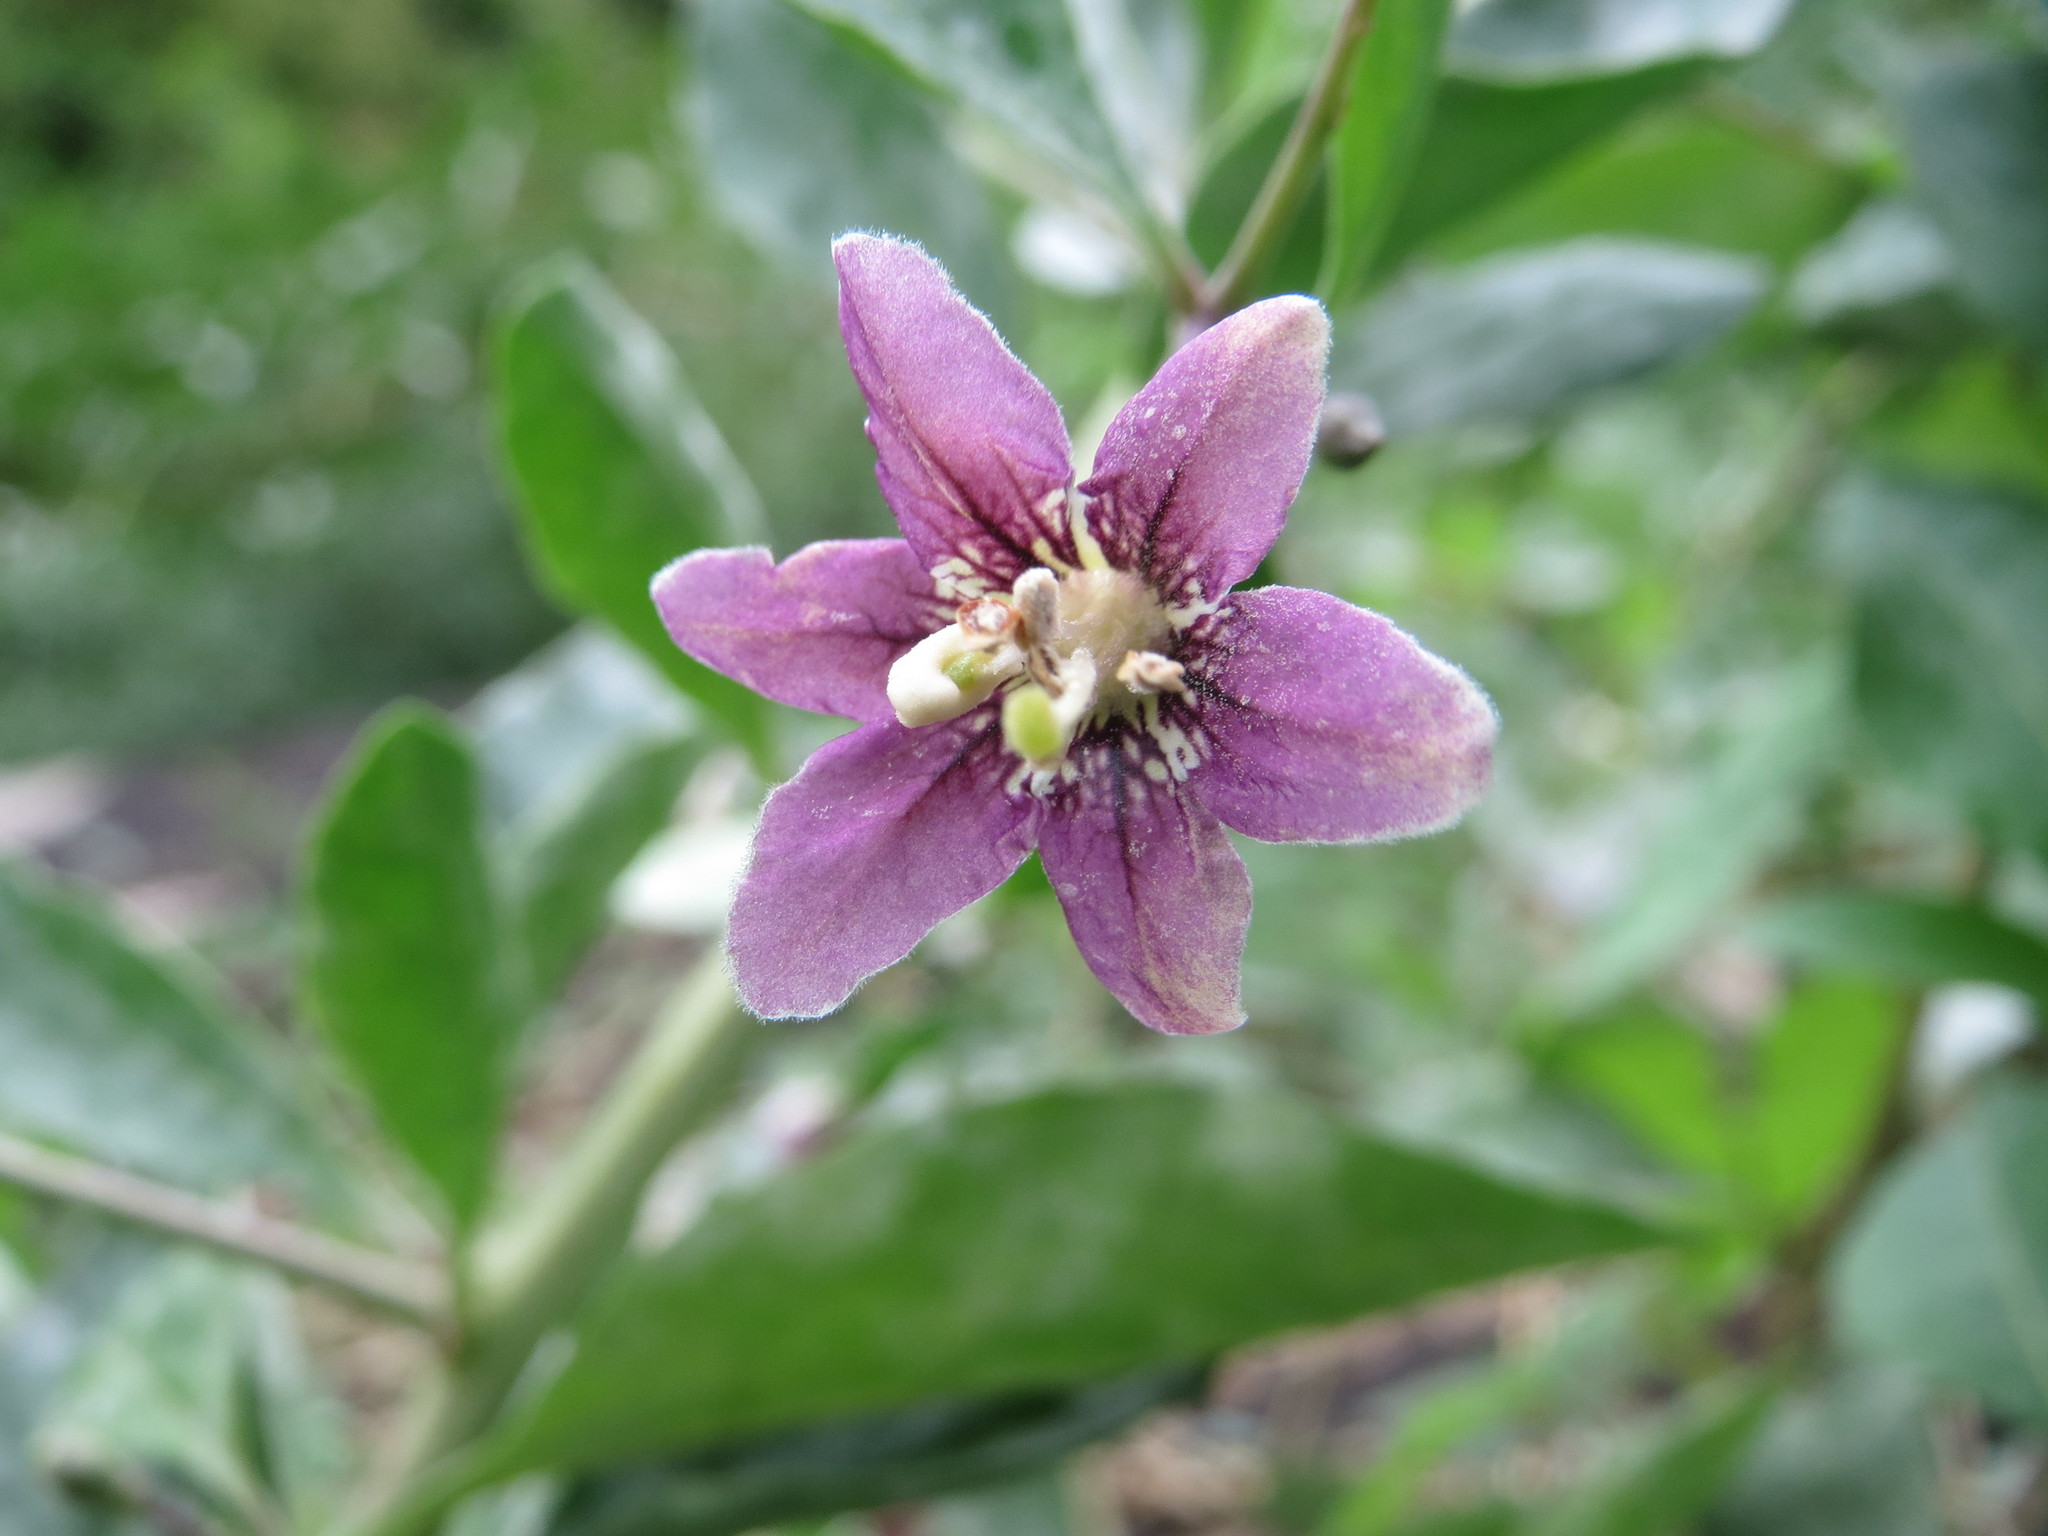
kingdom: Plantae
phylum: Tracheophyta
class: Magnoliopsida
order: Solanales
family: Solanaceae
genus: Lycium
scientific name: Lycium barbarum
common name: Duke of argyll's teaplant
